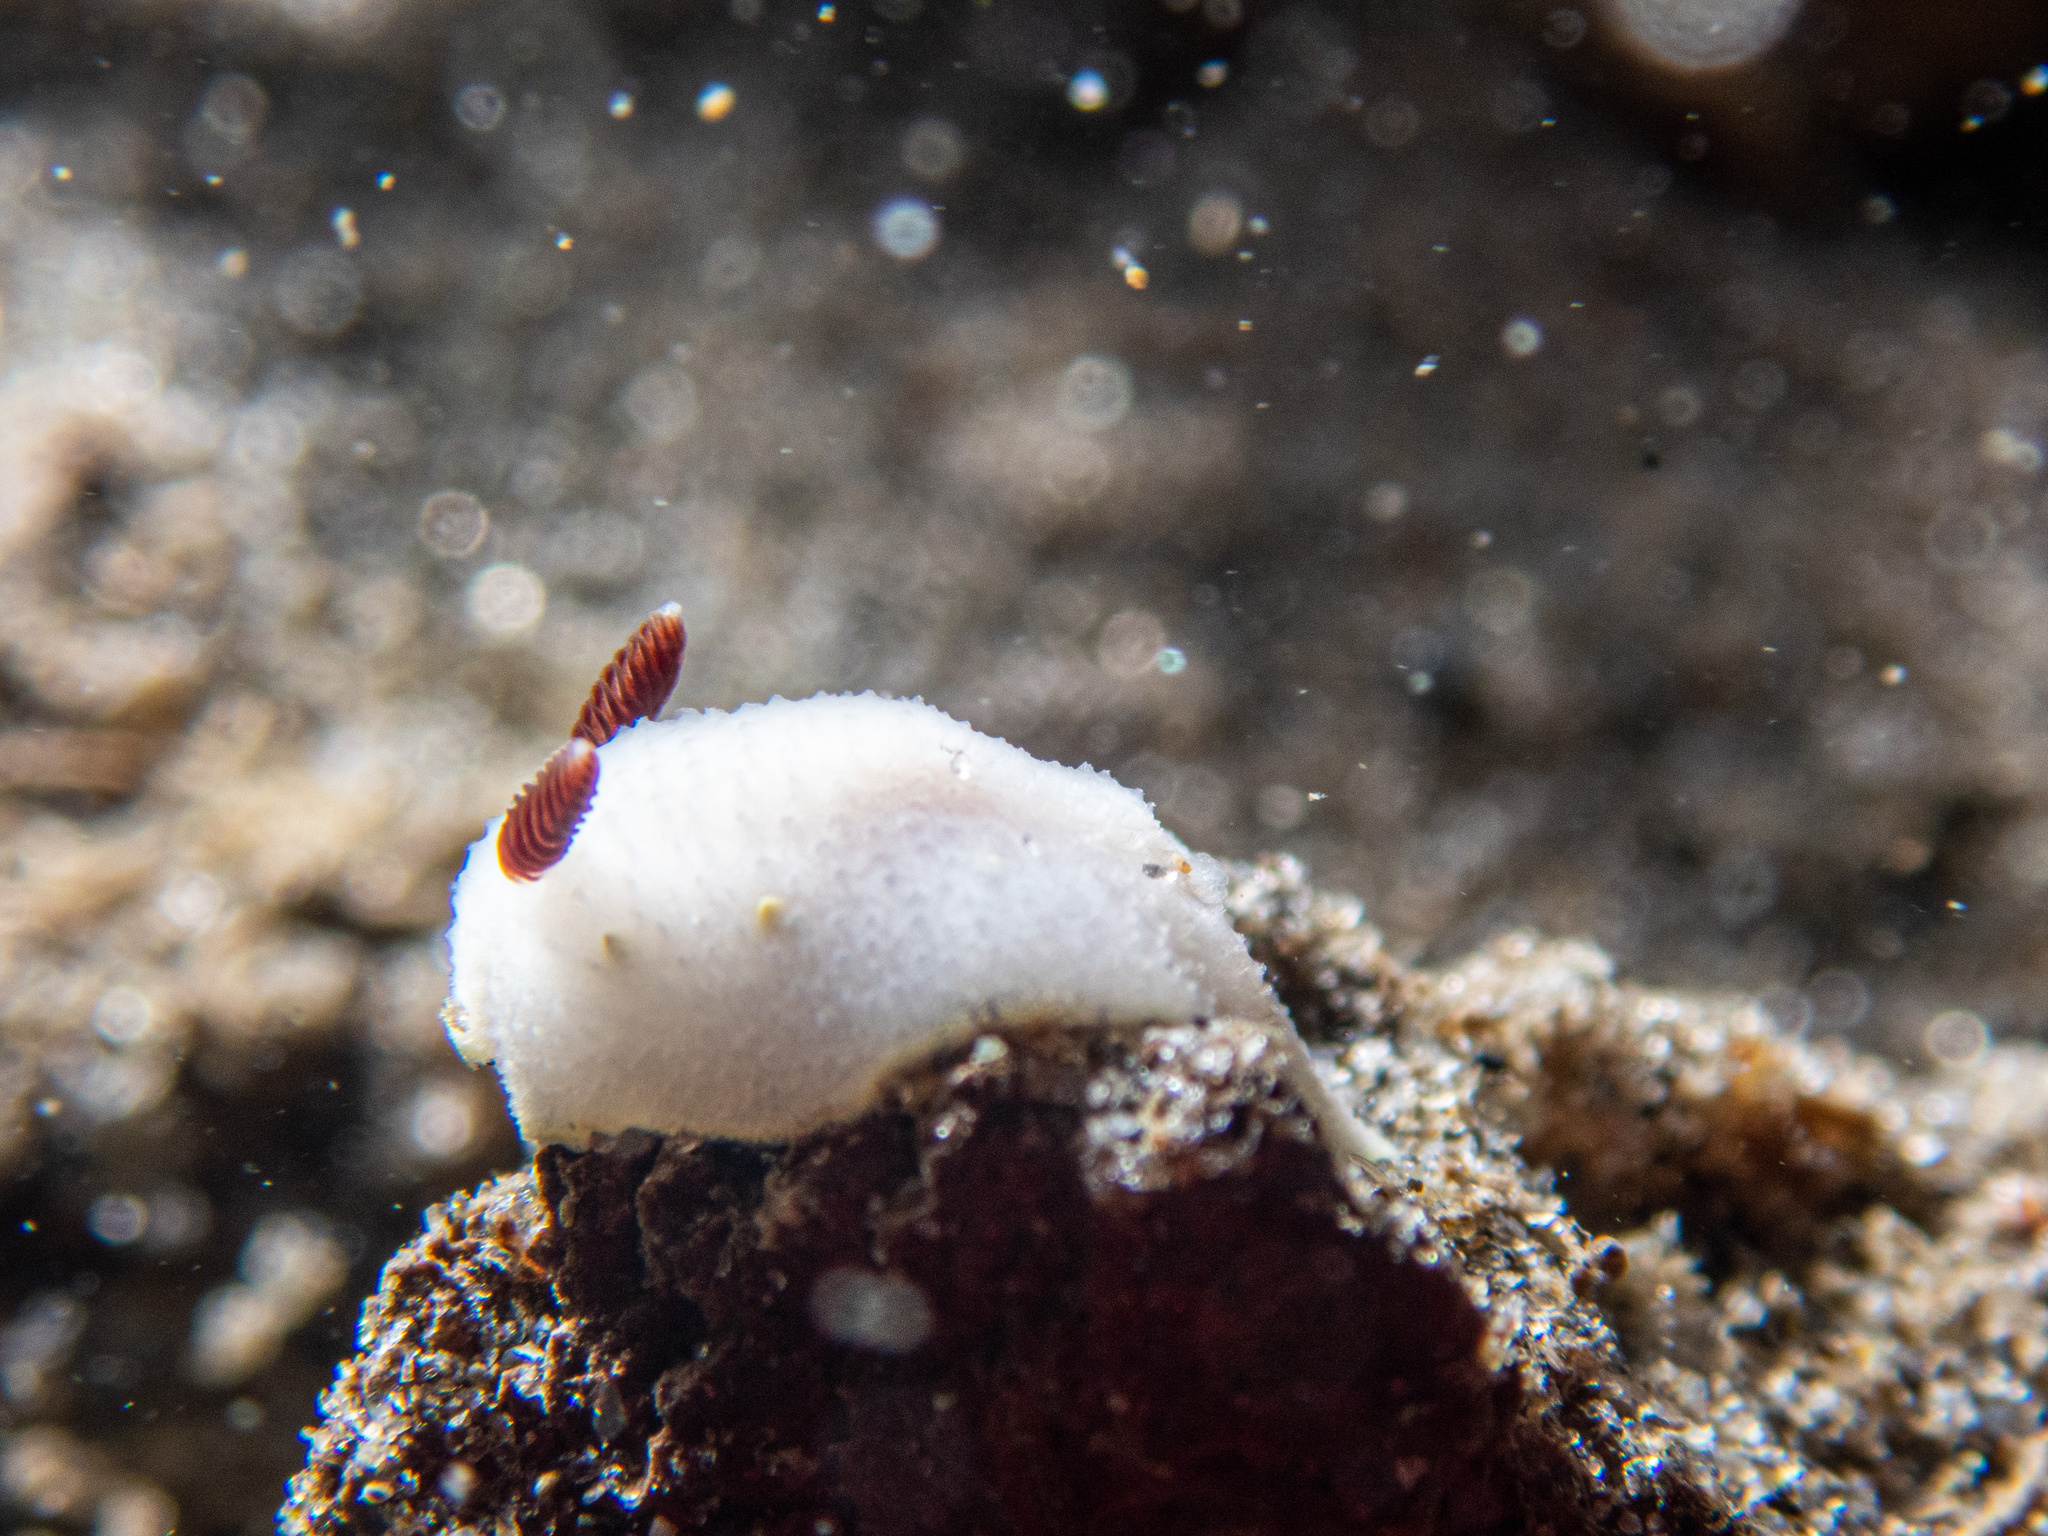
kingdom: Animalia
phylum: Mollusca
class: Gastropoda
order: Nudibranchia
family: Cadlinidae
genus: Cadlina
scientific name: Cadlina flavomaculata
